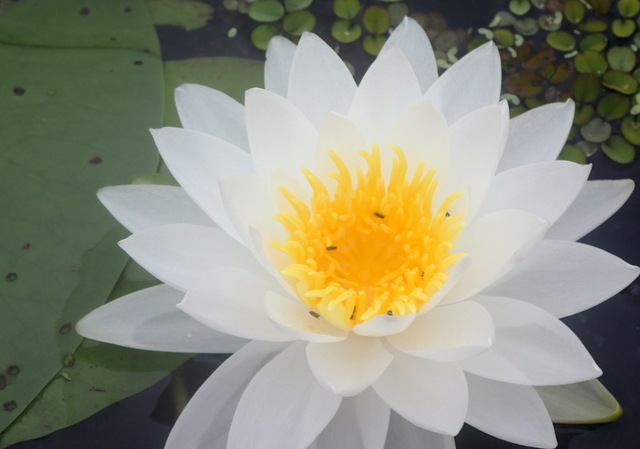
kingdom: Plantae
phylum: Tracheophyta
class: Magnoliopsida
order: Nymphaeales
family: Nymphaeaceae
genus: Nymphaea
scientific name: Nymphaea odorata
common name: Fragrant water-lily
